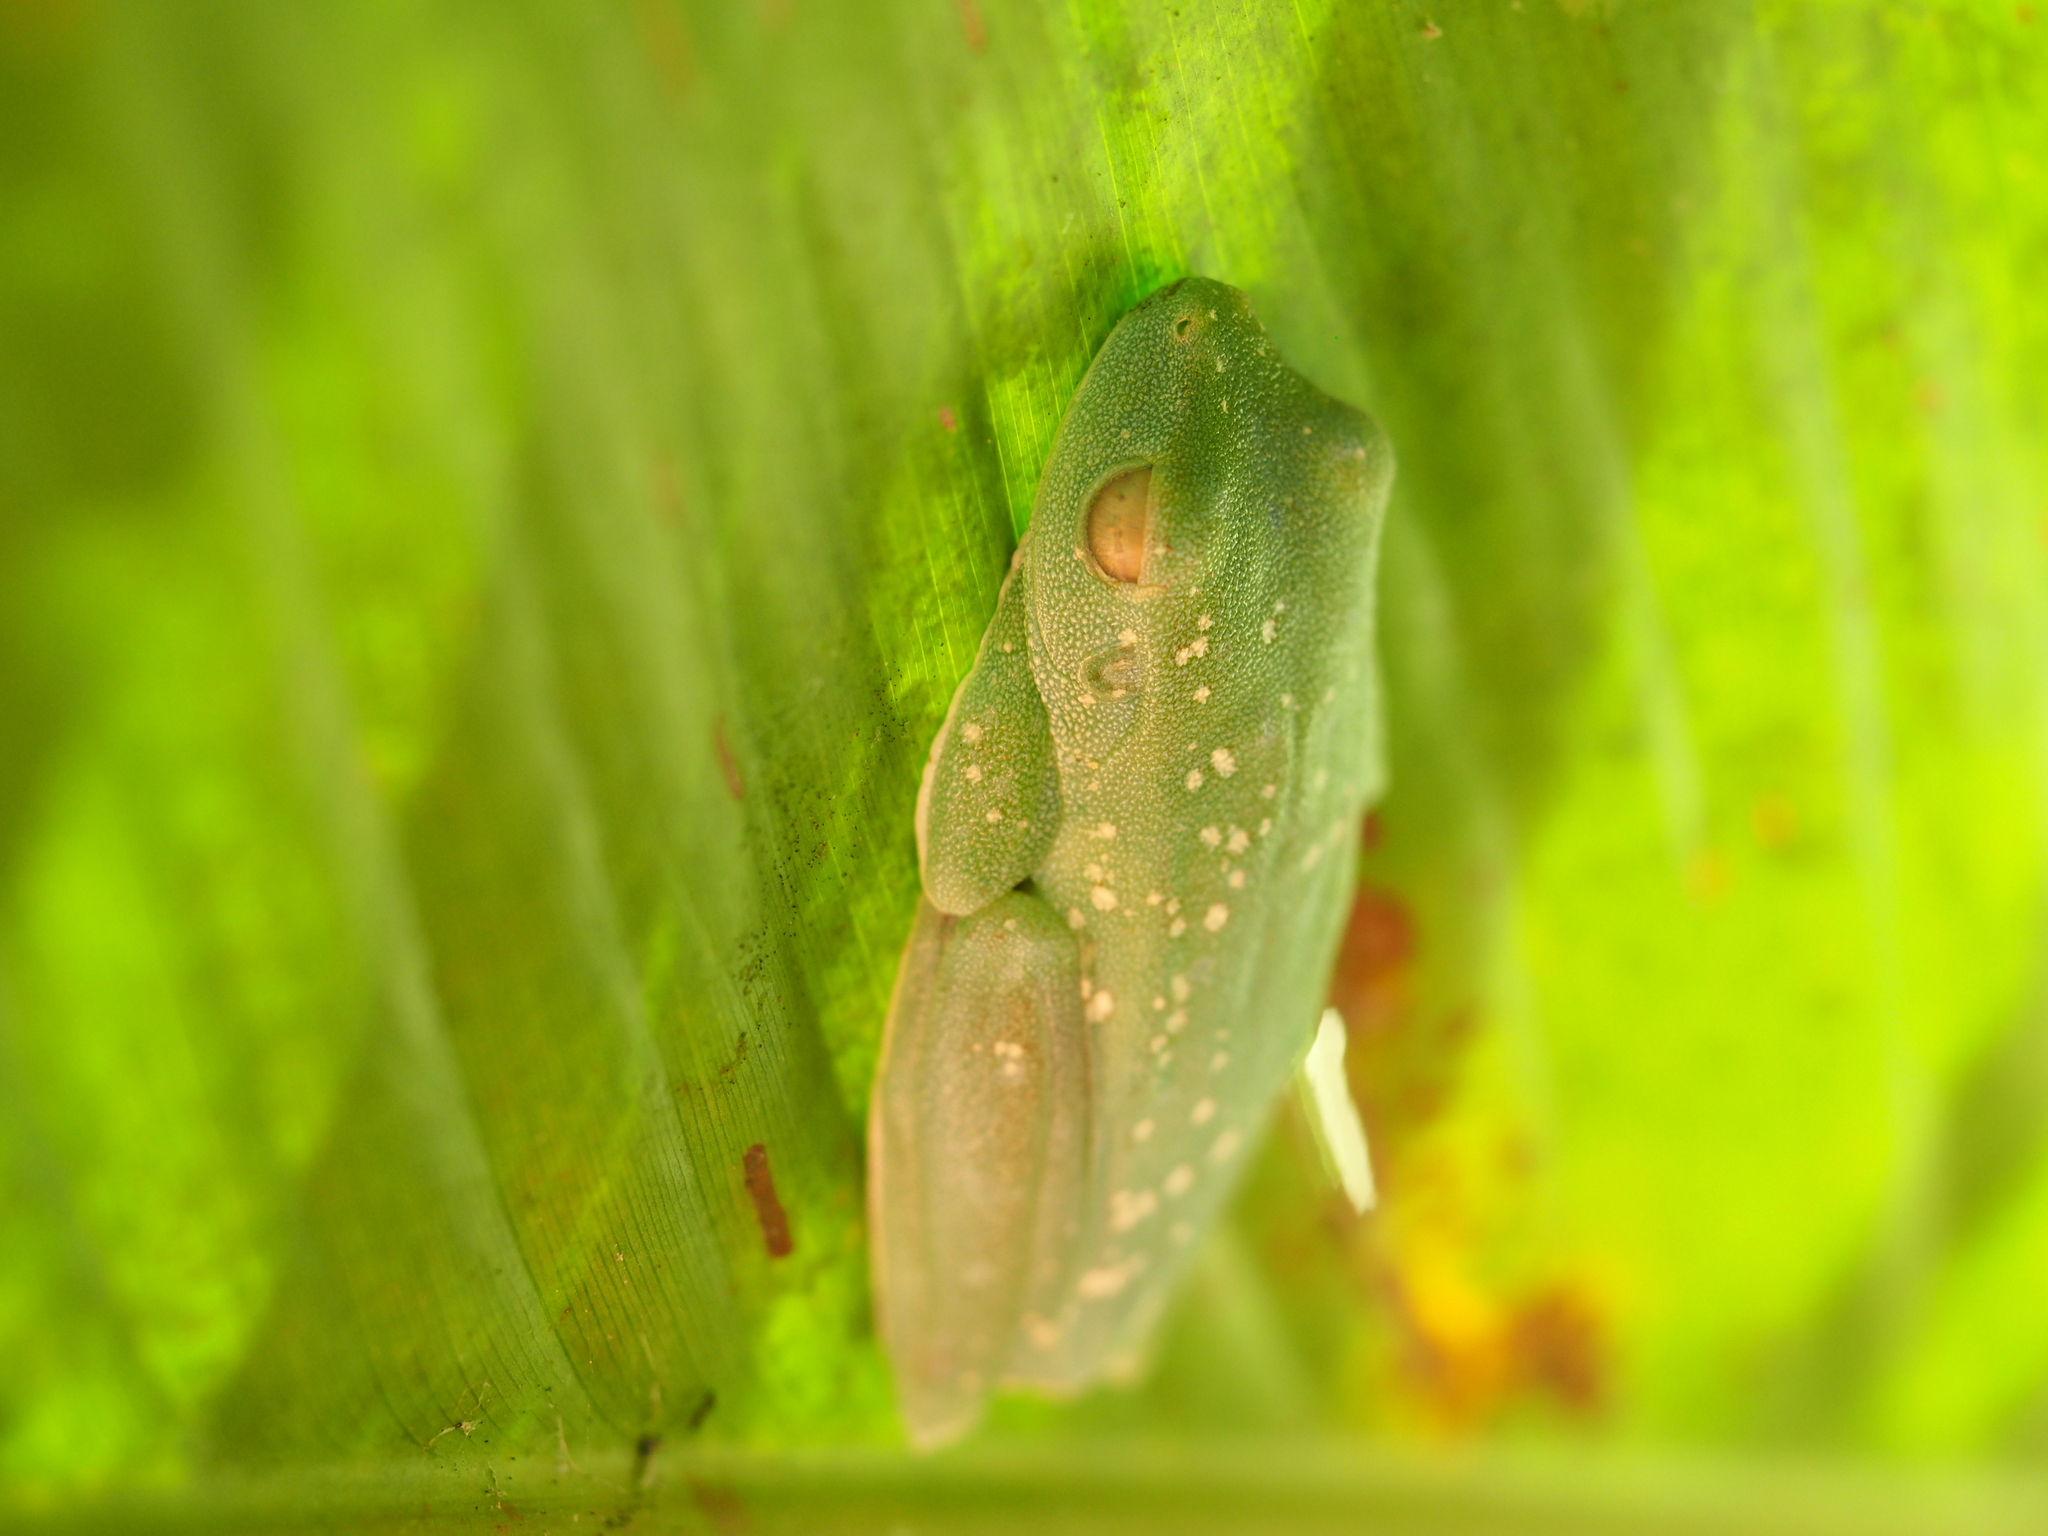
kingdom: Animalia
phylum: Chordata
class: Amphibia
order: Anura
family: Hylidae
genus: Boana
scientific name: Boana rufitela
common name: Canal zone treefrog
